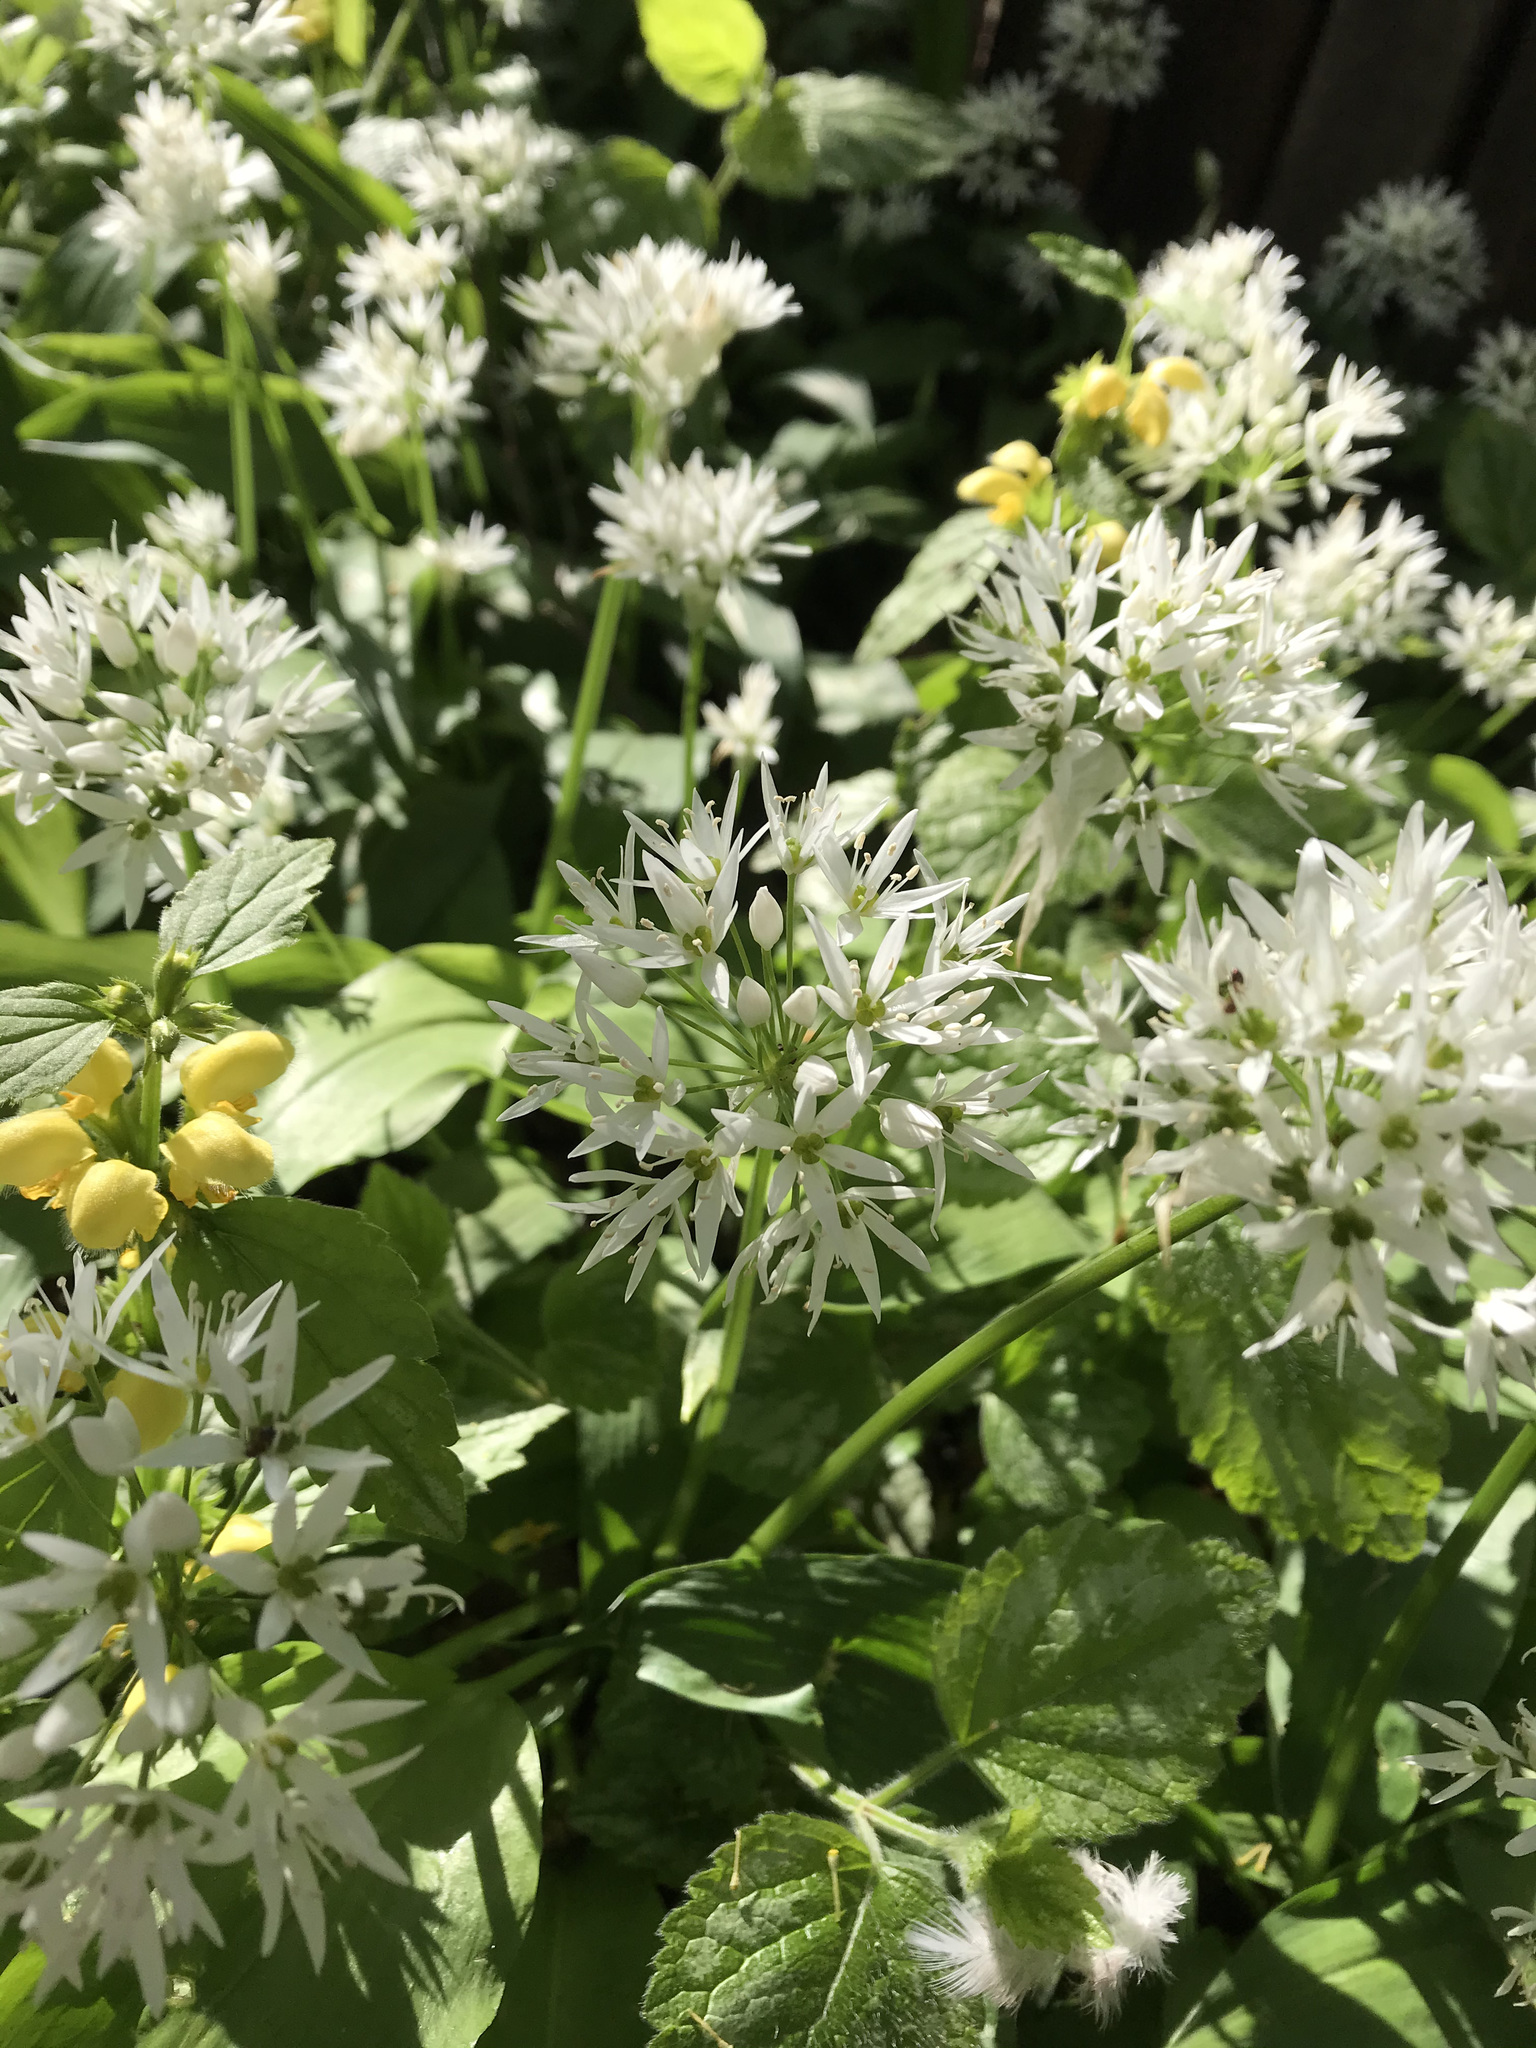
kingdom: Plantae
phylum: Tracheophyta
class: Liliopsida
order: Asparagales
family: Amaryllidaceae
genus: Allium
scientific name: Allium ursinum
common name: Ramsons
